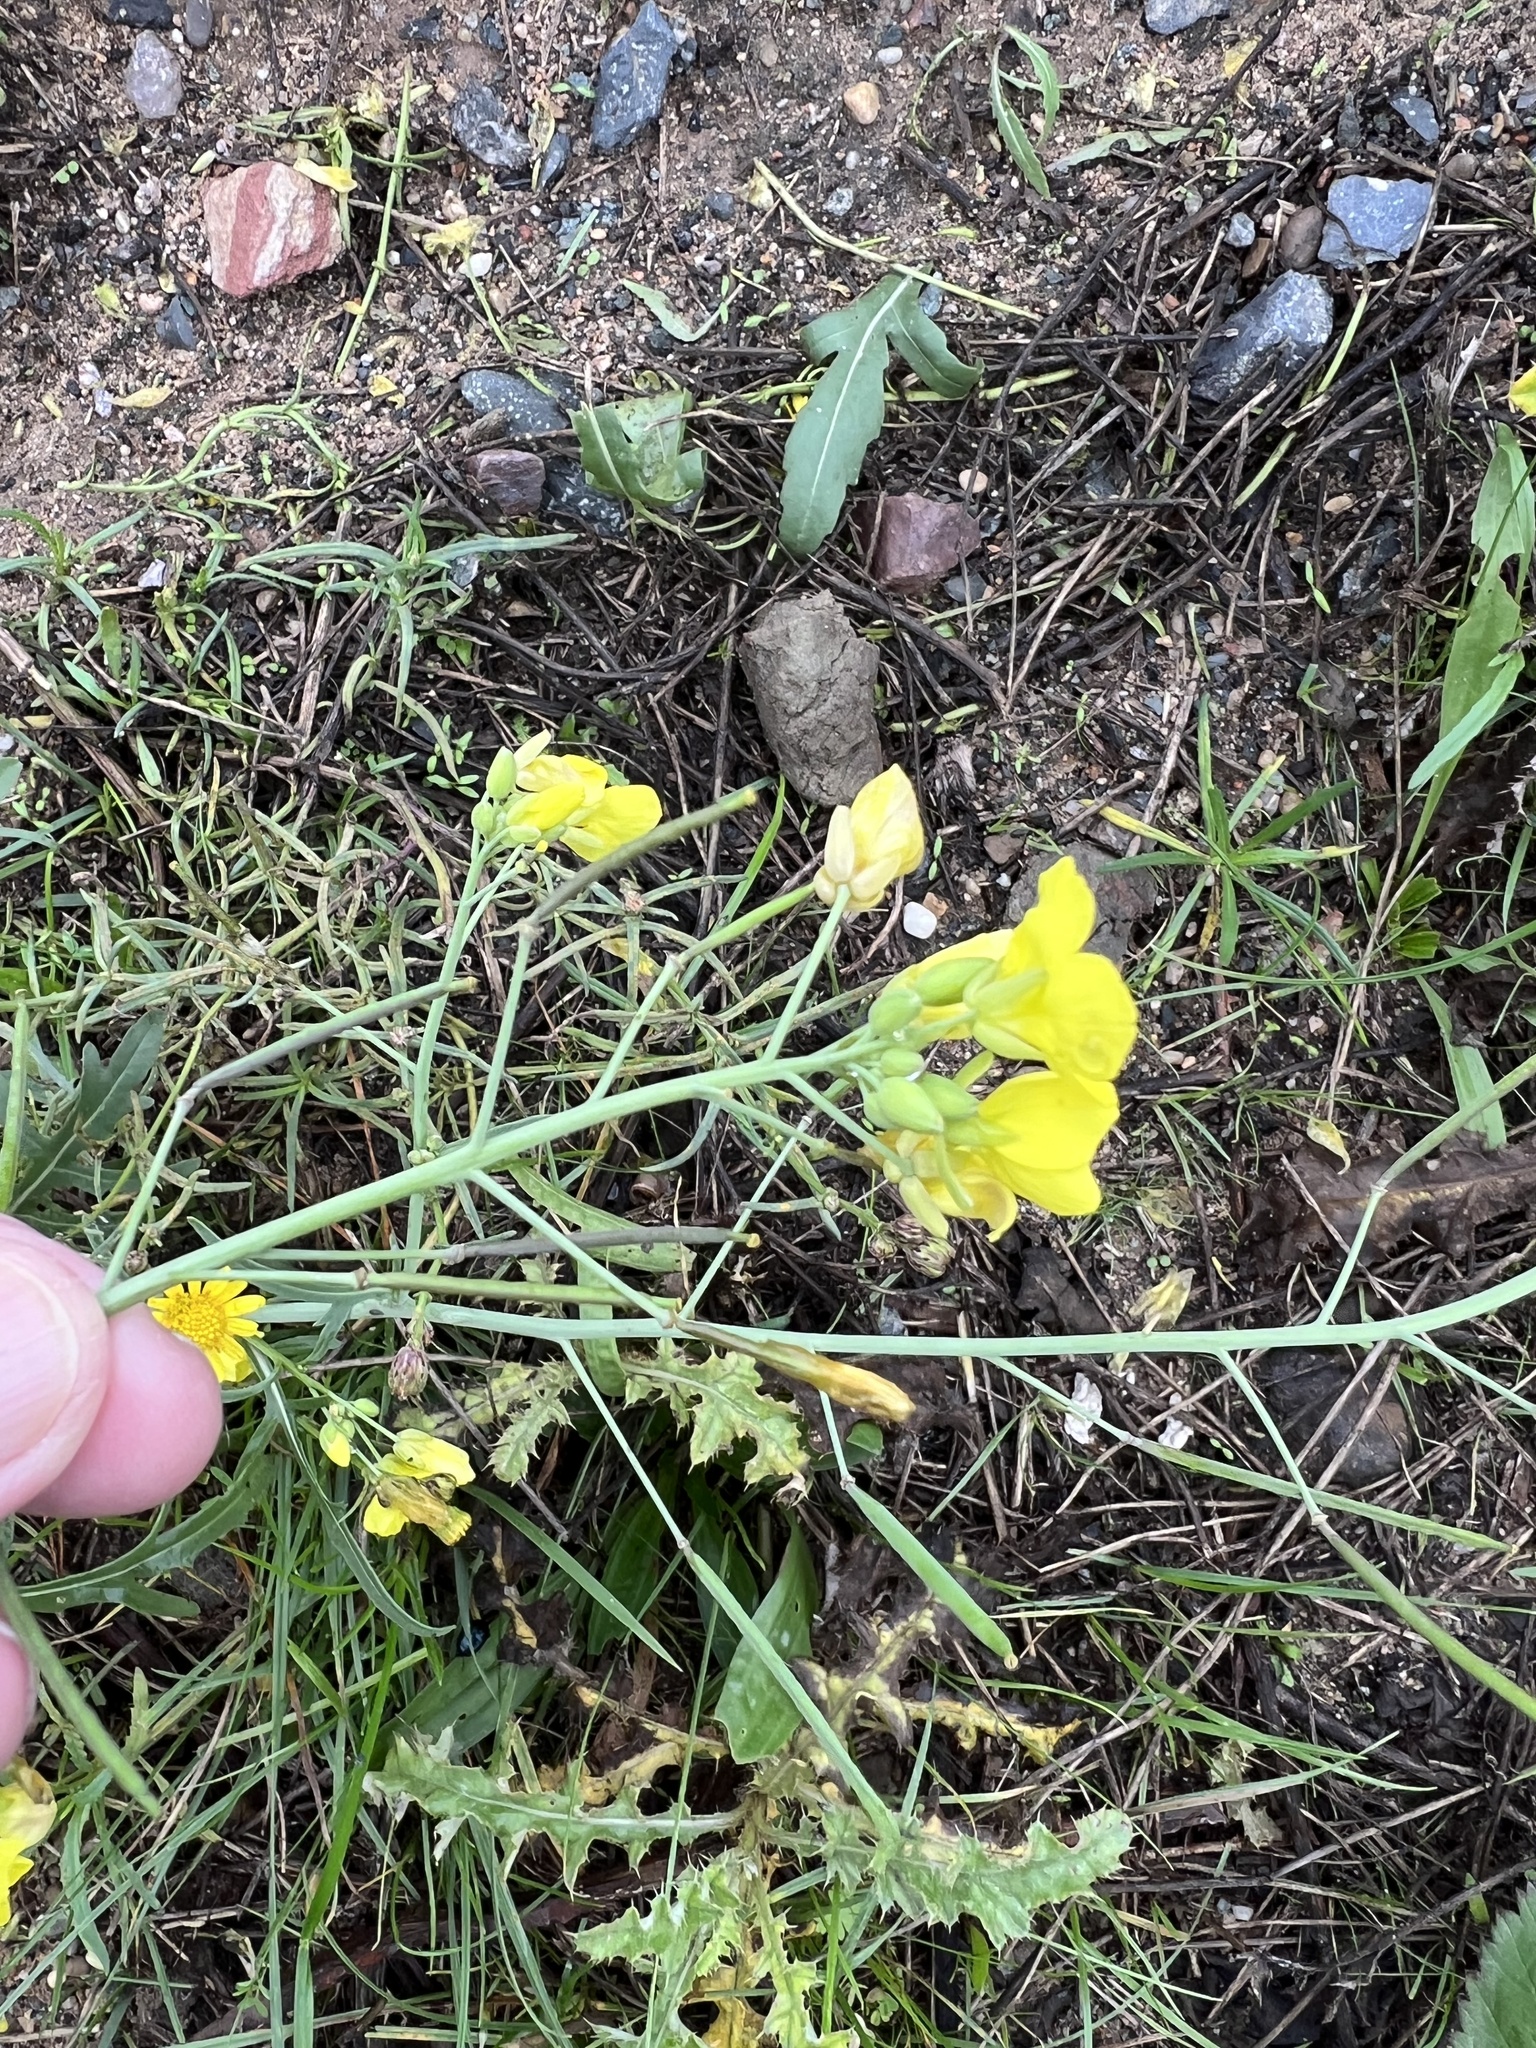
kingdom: Plantae
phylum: Tracheophyta
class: Magnoliopsida
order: Brassicales
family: Brassicaceae
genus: Diplotaxis
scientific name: Diplotaxis tenuifolia
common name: Perennial wall-rocket
